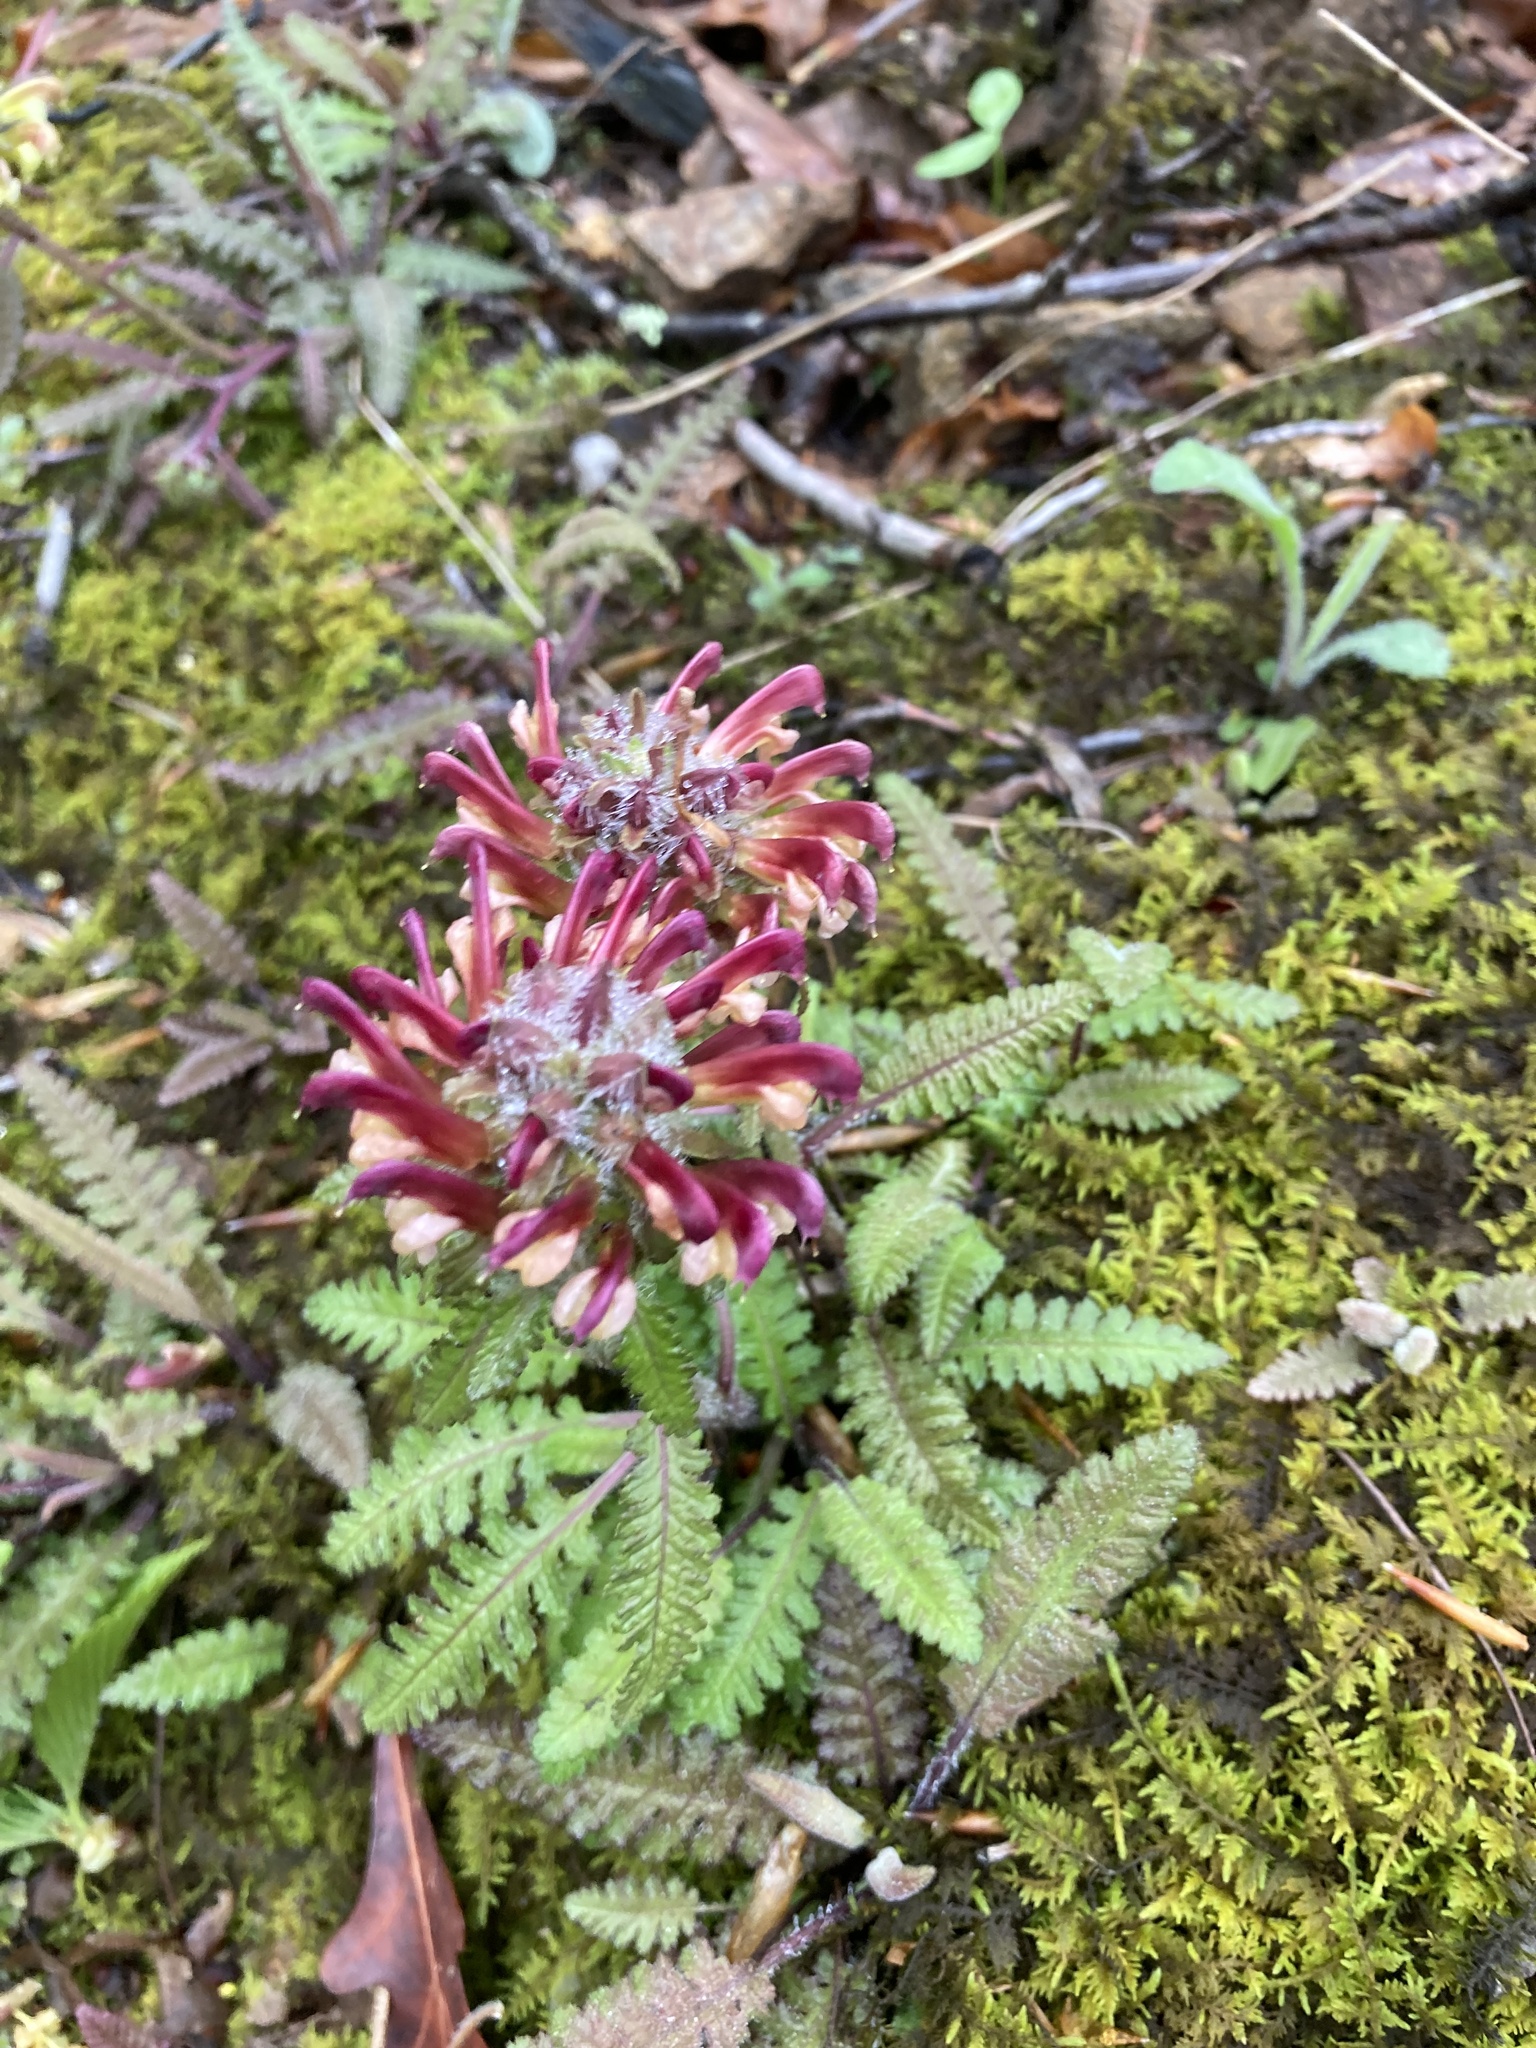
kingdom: Plantae
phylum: Tracheophyta
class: Magnoliopsida
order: Lamiales
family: Orobanchaceae
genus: Pedicularis
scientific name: Pedicularis canadensis
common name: Early lousewort
